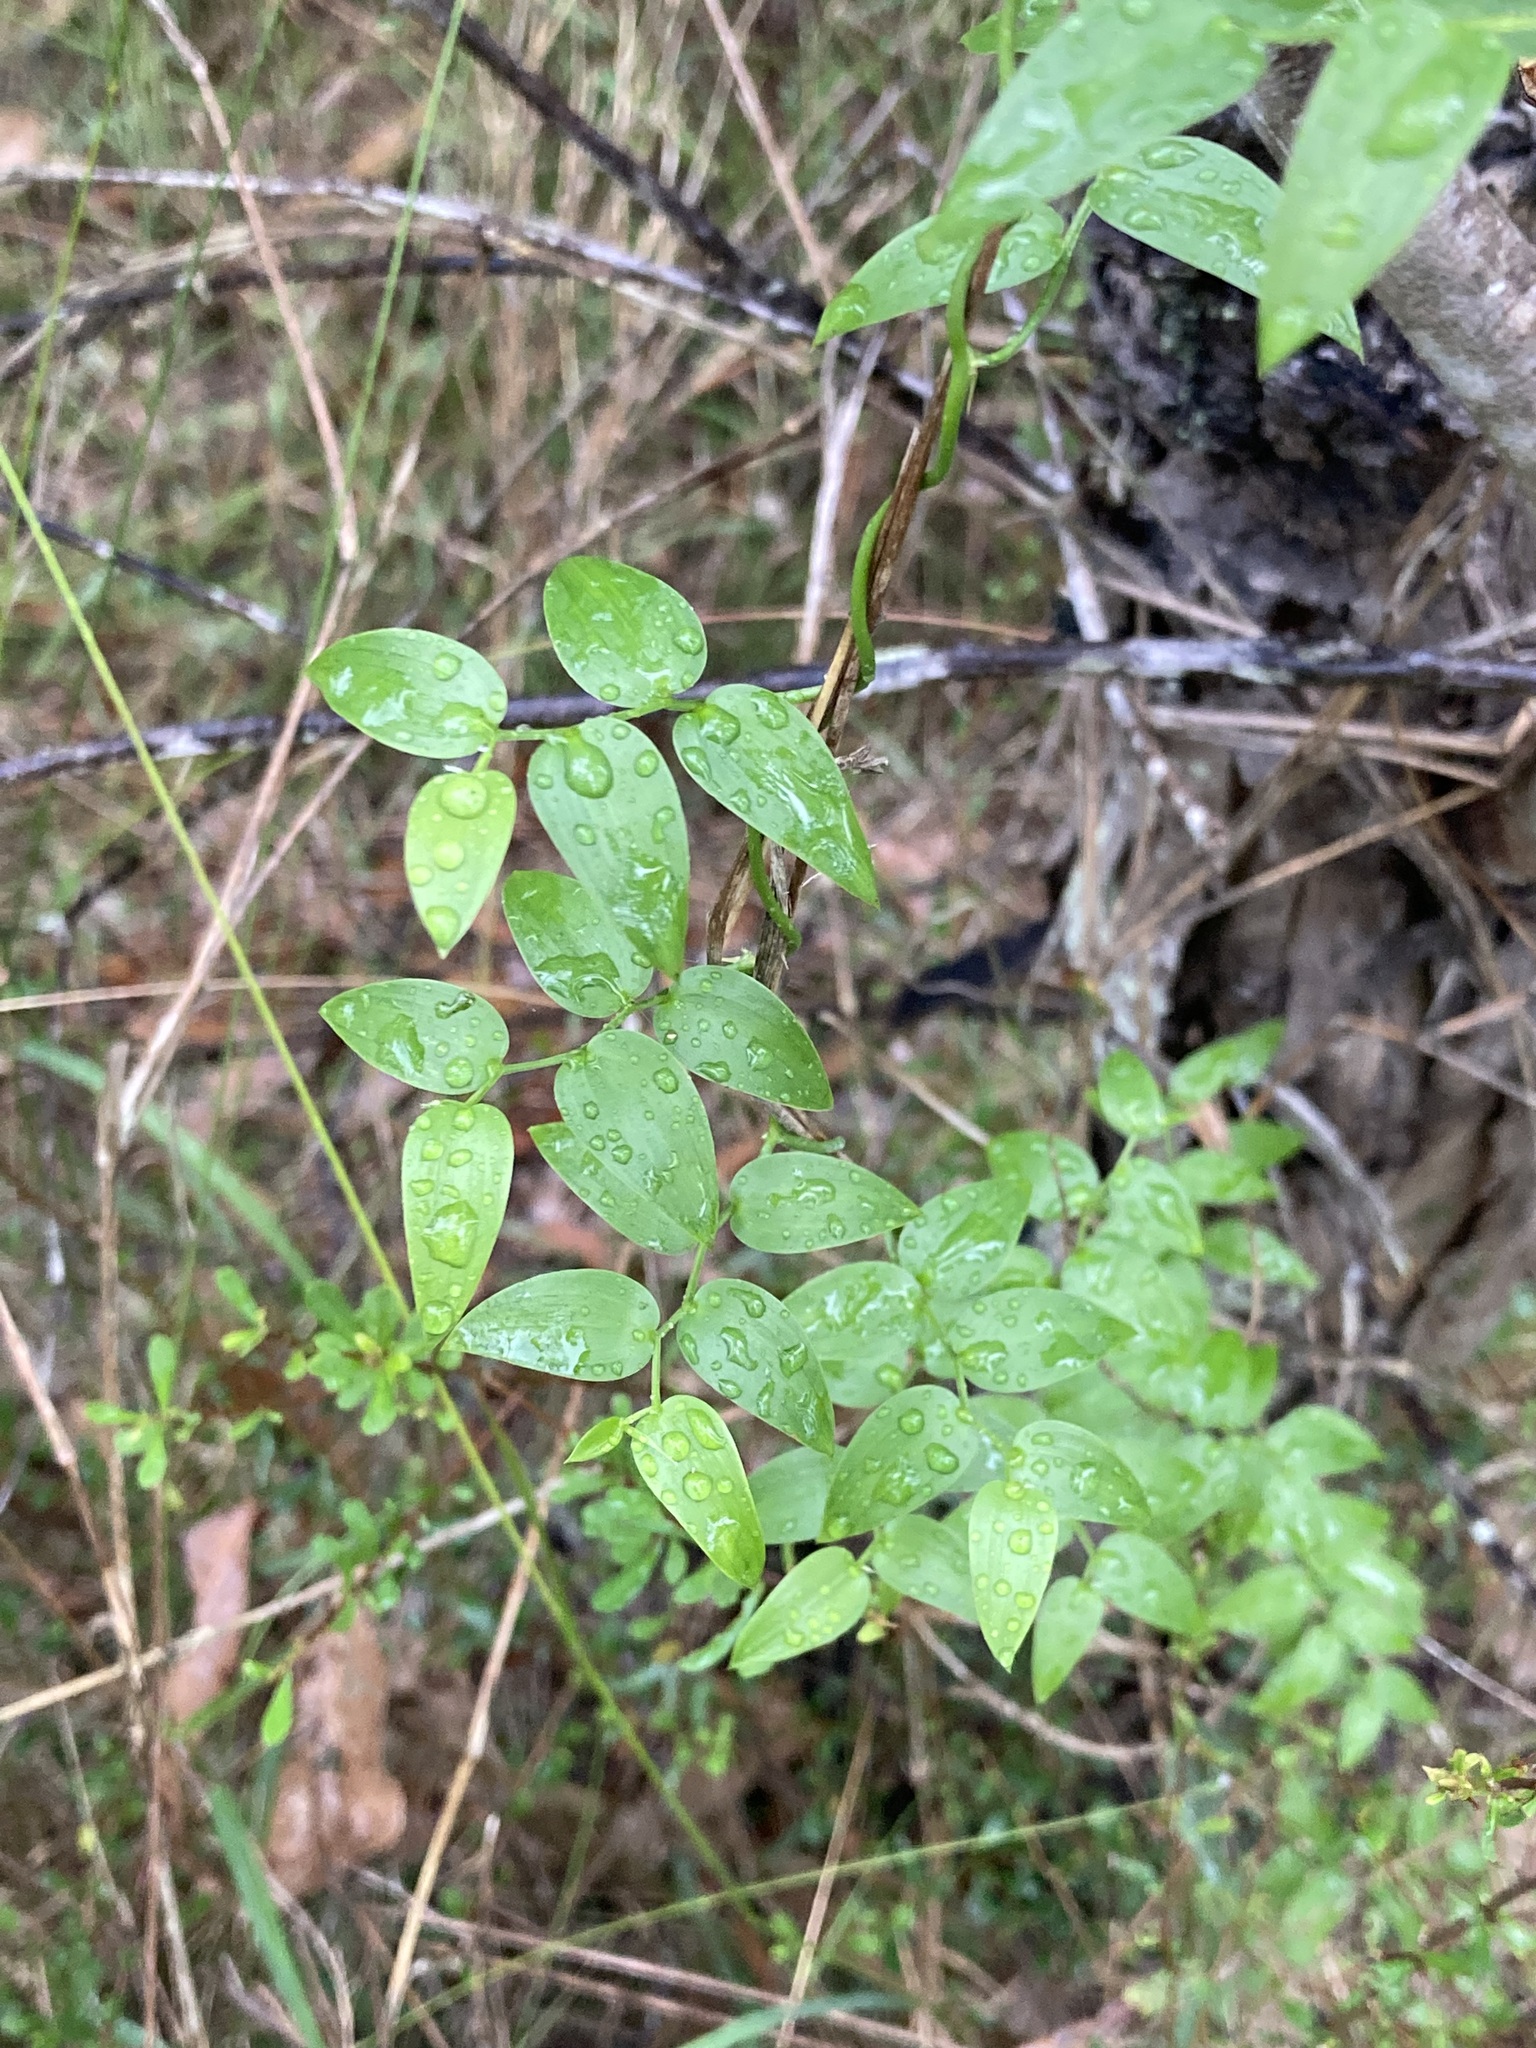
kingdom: Plantae
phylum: Tracheophyta
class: Liliopsida
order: Asparagales
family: Asparagaceae
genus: Asparagus
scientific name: Asparagus asparagoides
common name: African asparagus fern
